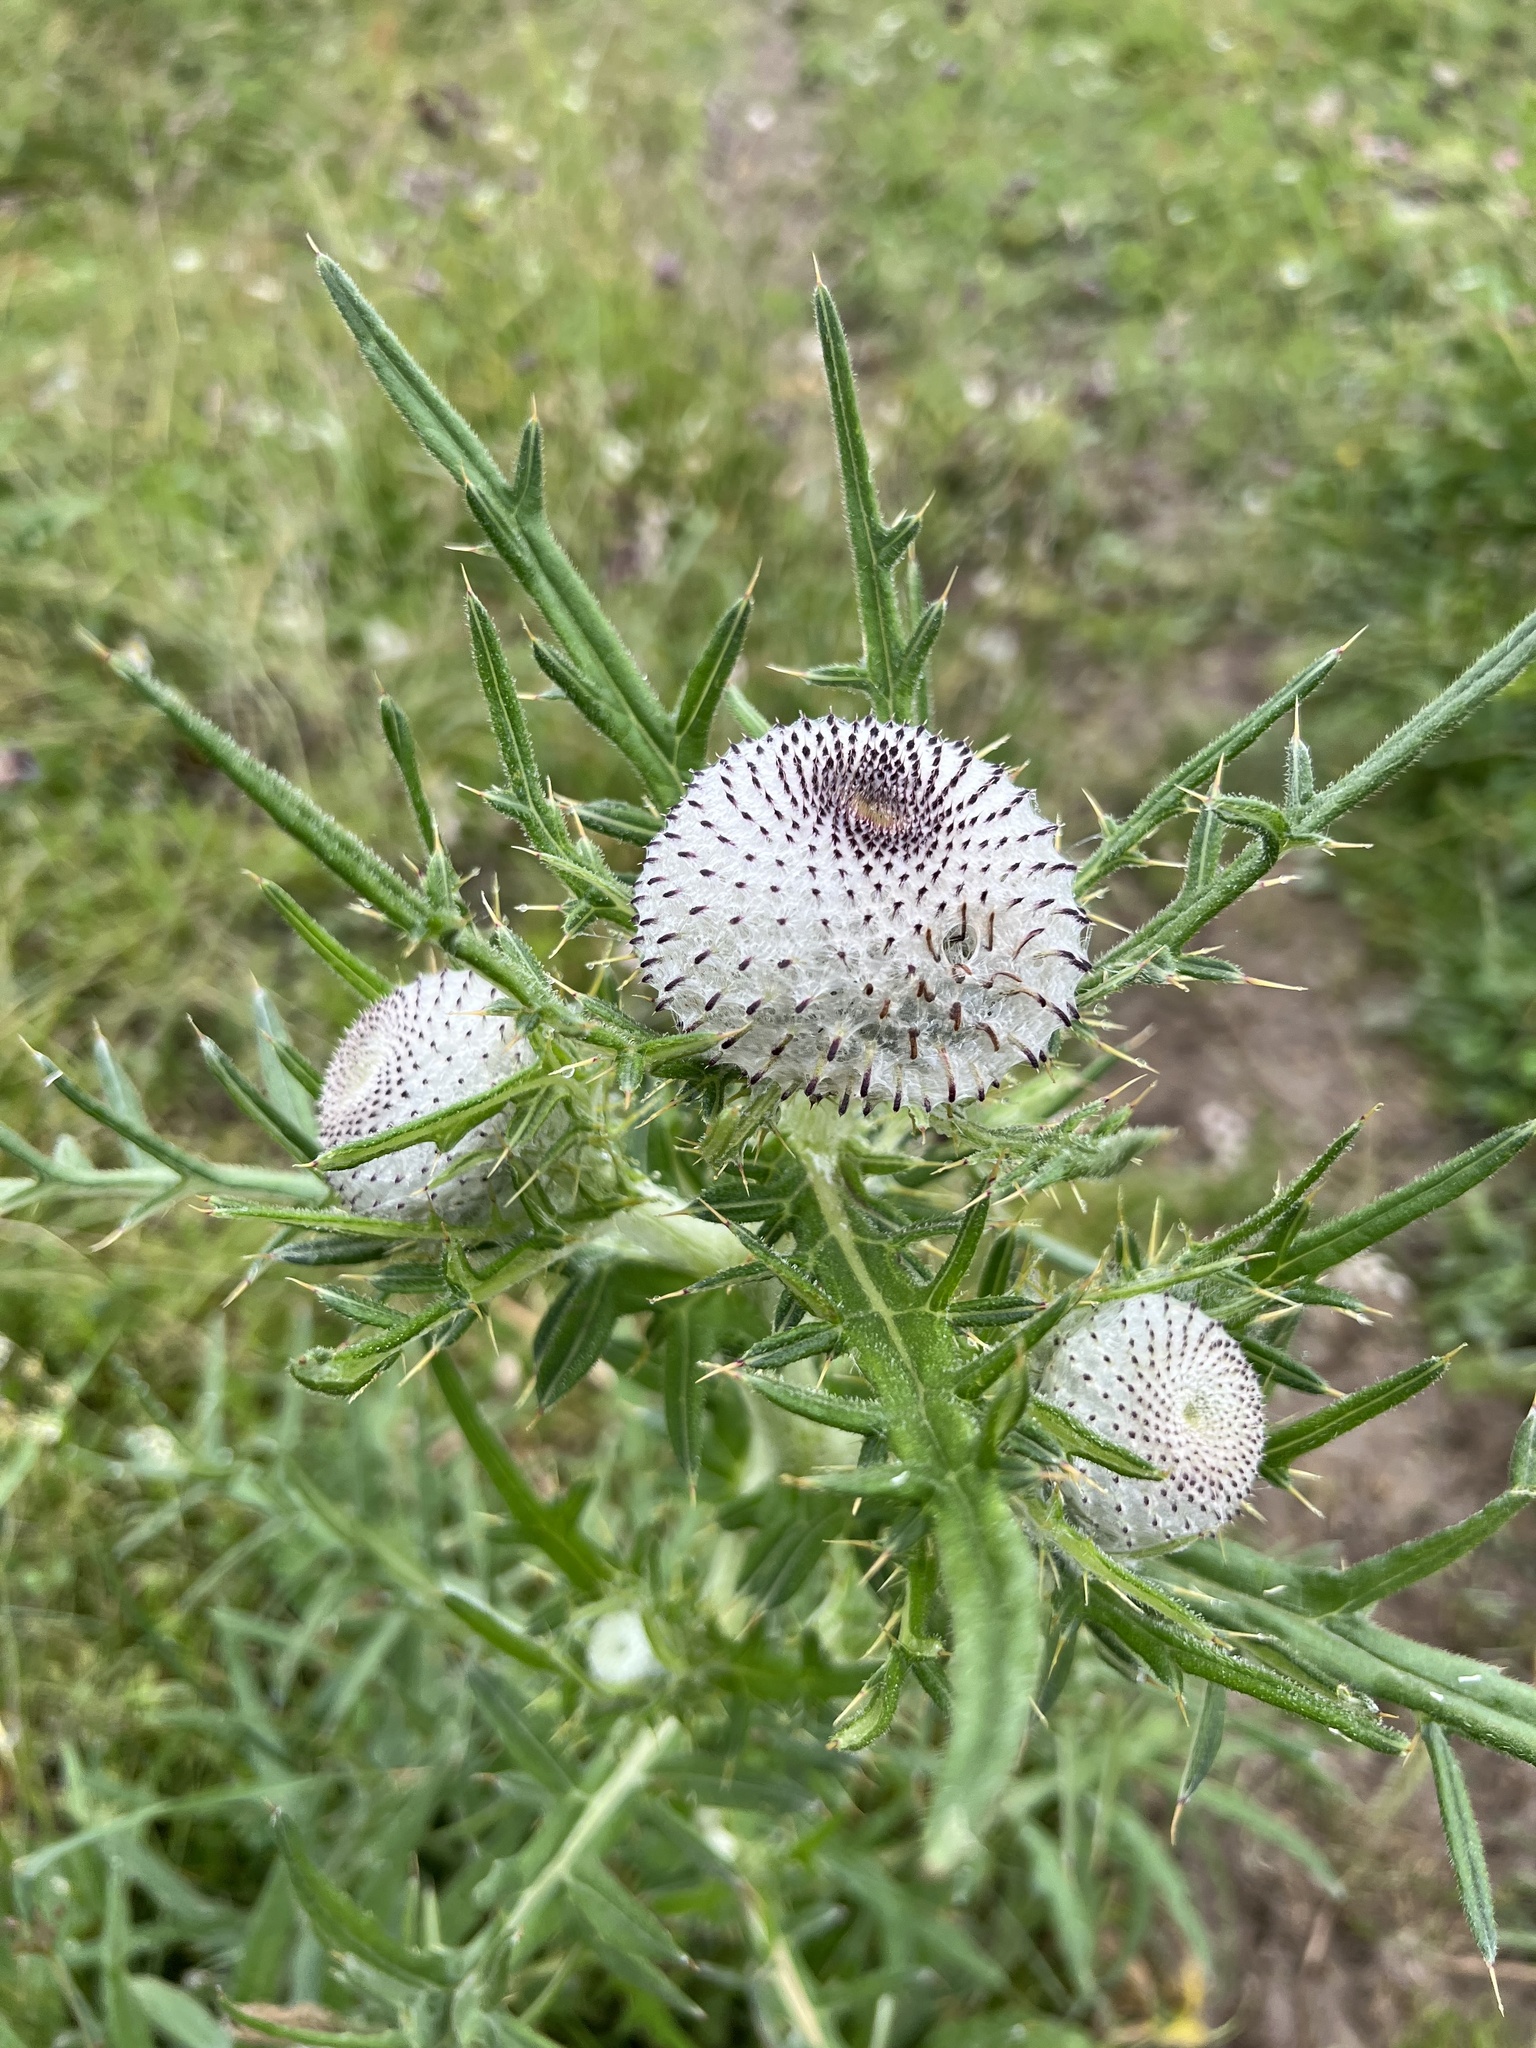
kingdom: Plantae
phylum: Tracheophyta
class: Magnoliopsida
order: Asterales
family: Asteraceae
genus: Lophiolepis
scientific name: Lophiolepis eriophora
